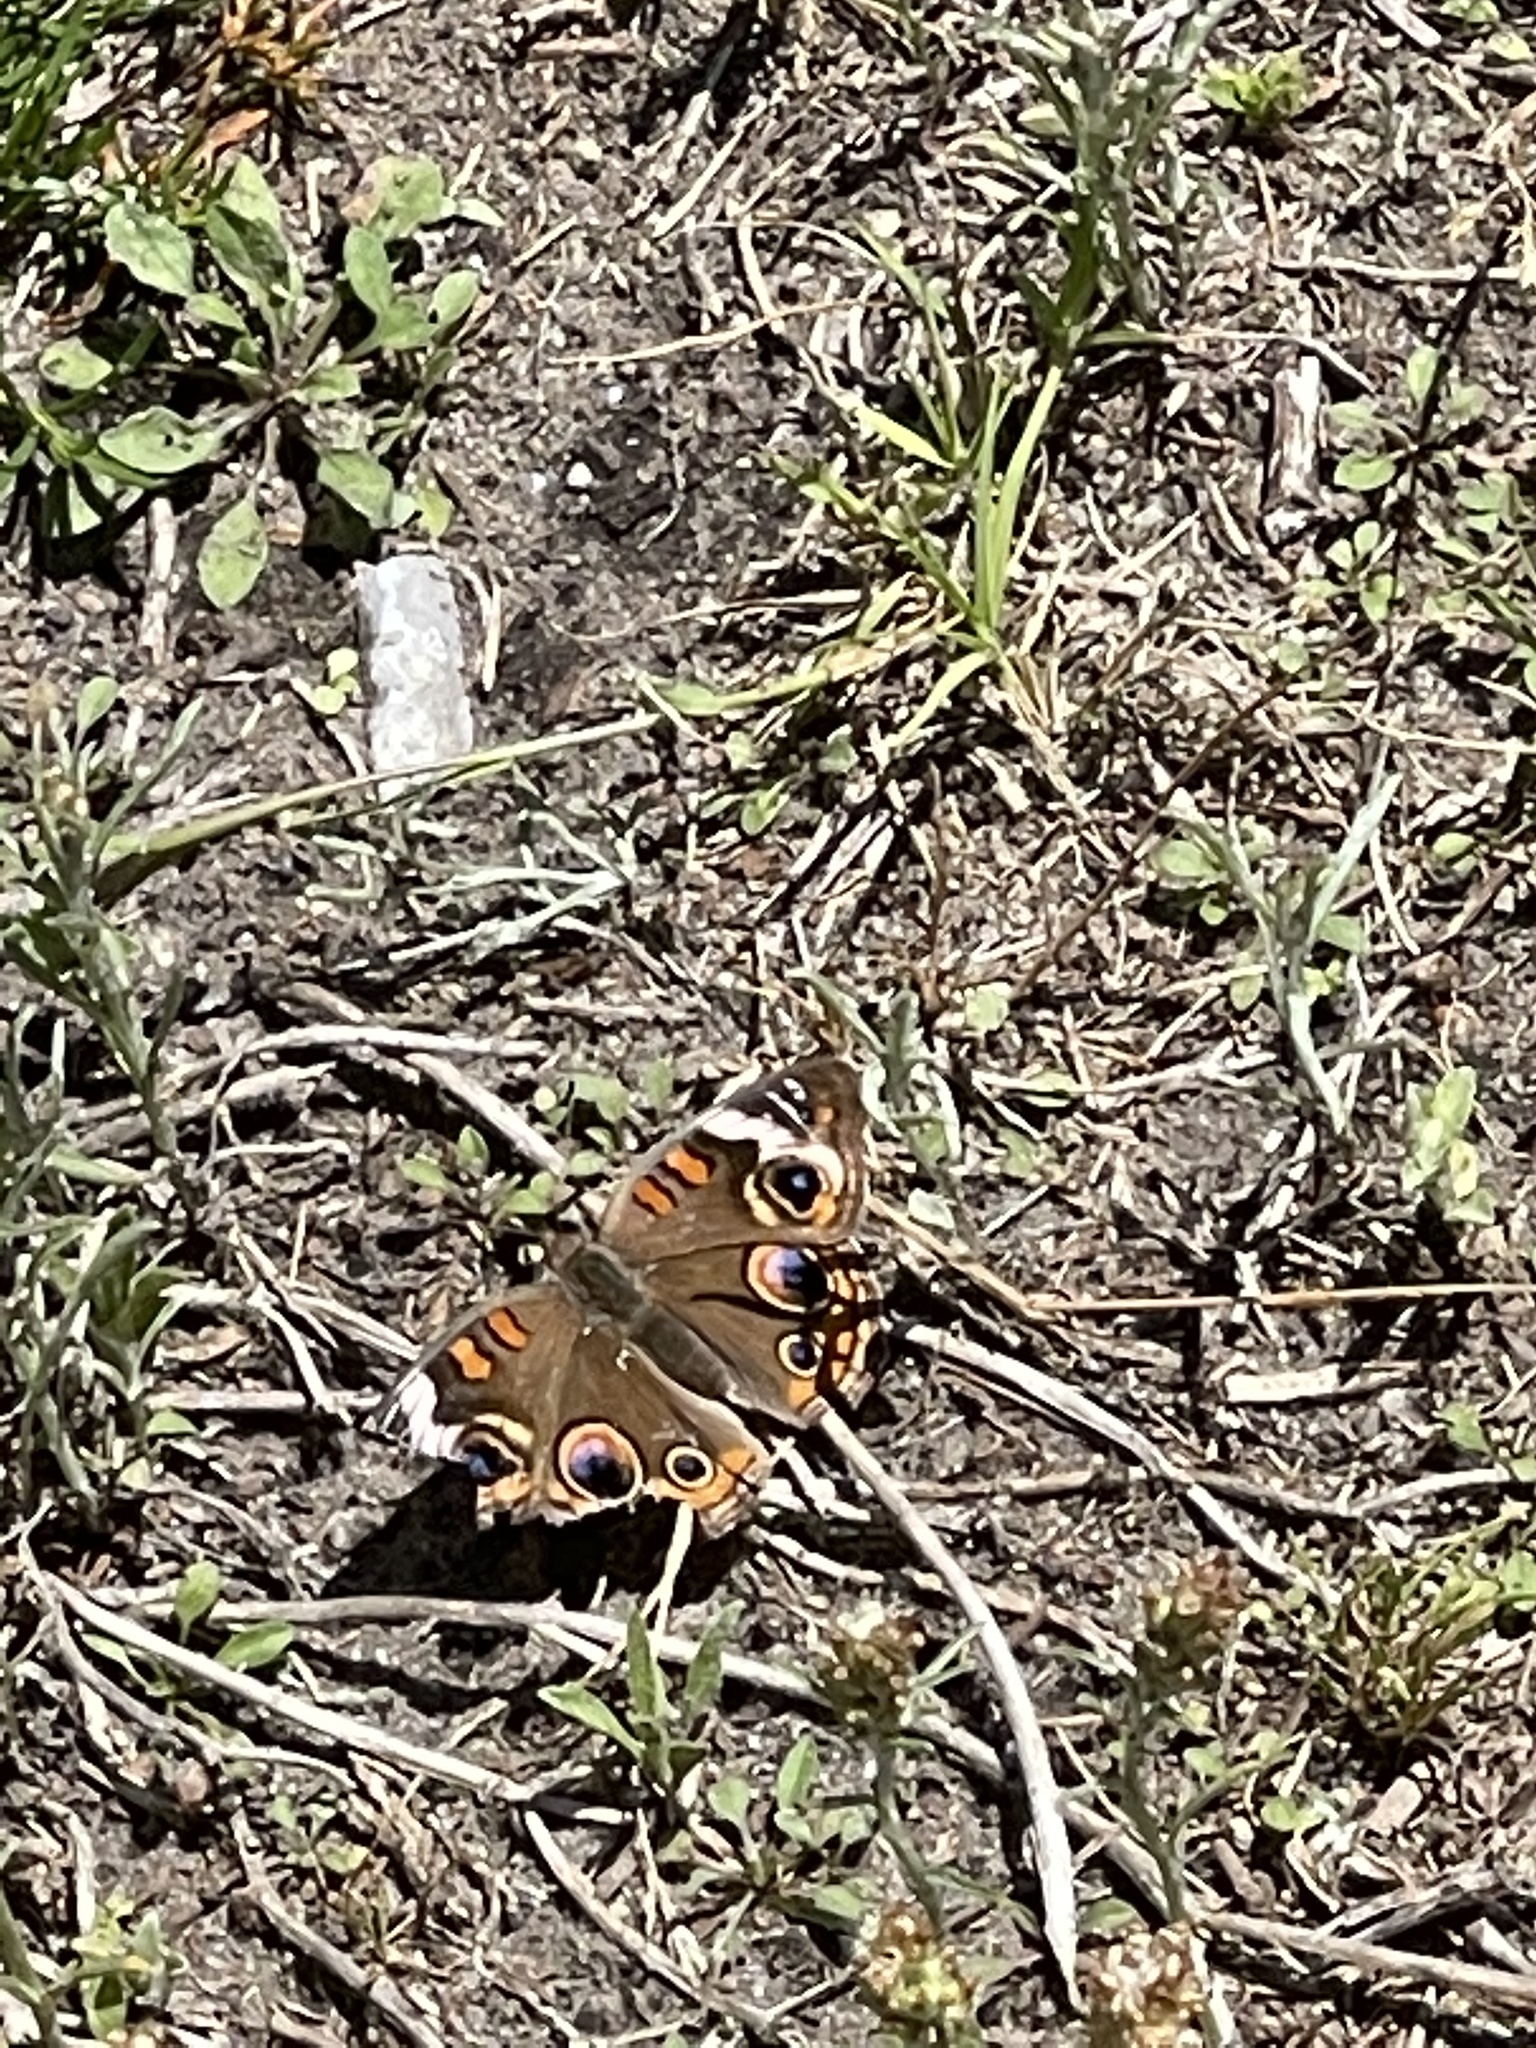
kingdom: Animalia
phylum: Arthropoda
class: Insecta
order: Lepidoptera
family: Nymphalidae
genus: Junonia
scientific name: Junonia coenia
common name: Common buckeye
